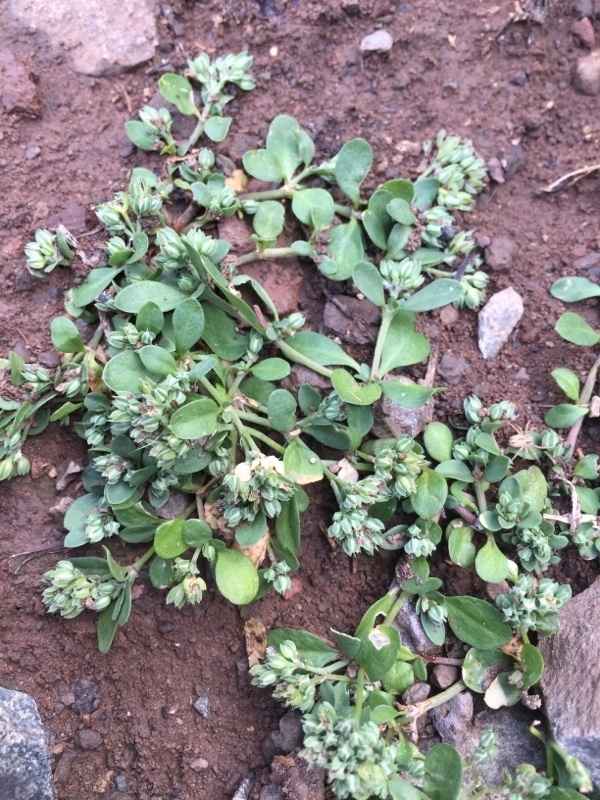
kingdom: Plantae
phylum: Tracheophyta
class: Magnoliopsida
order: Caryophyllales
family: Caryophyllaceae
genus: Polycarpon
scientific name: Polycarpon tetraphyllum
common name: Four-leaved all-seed
